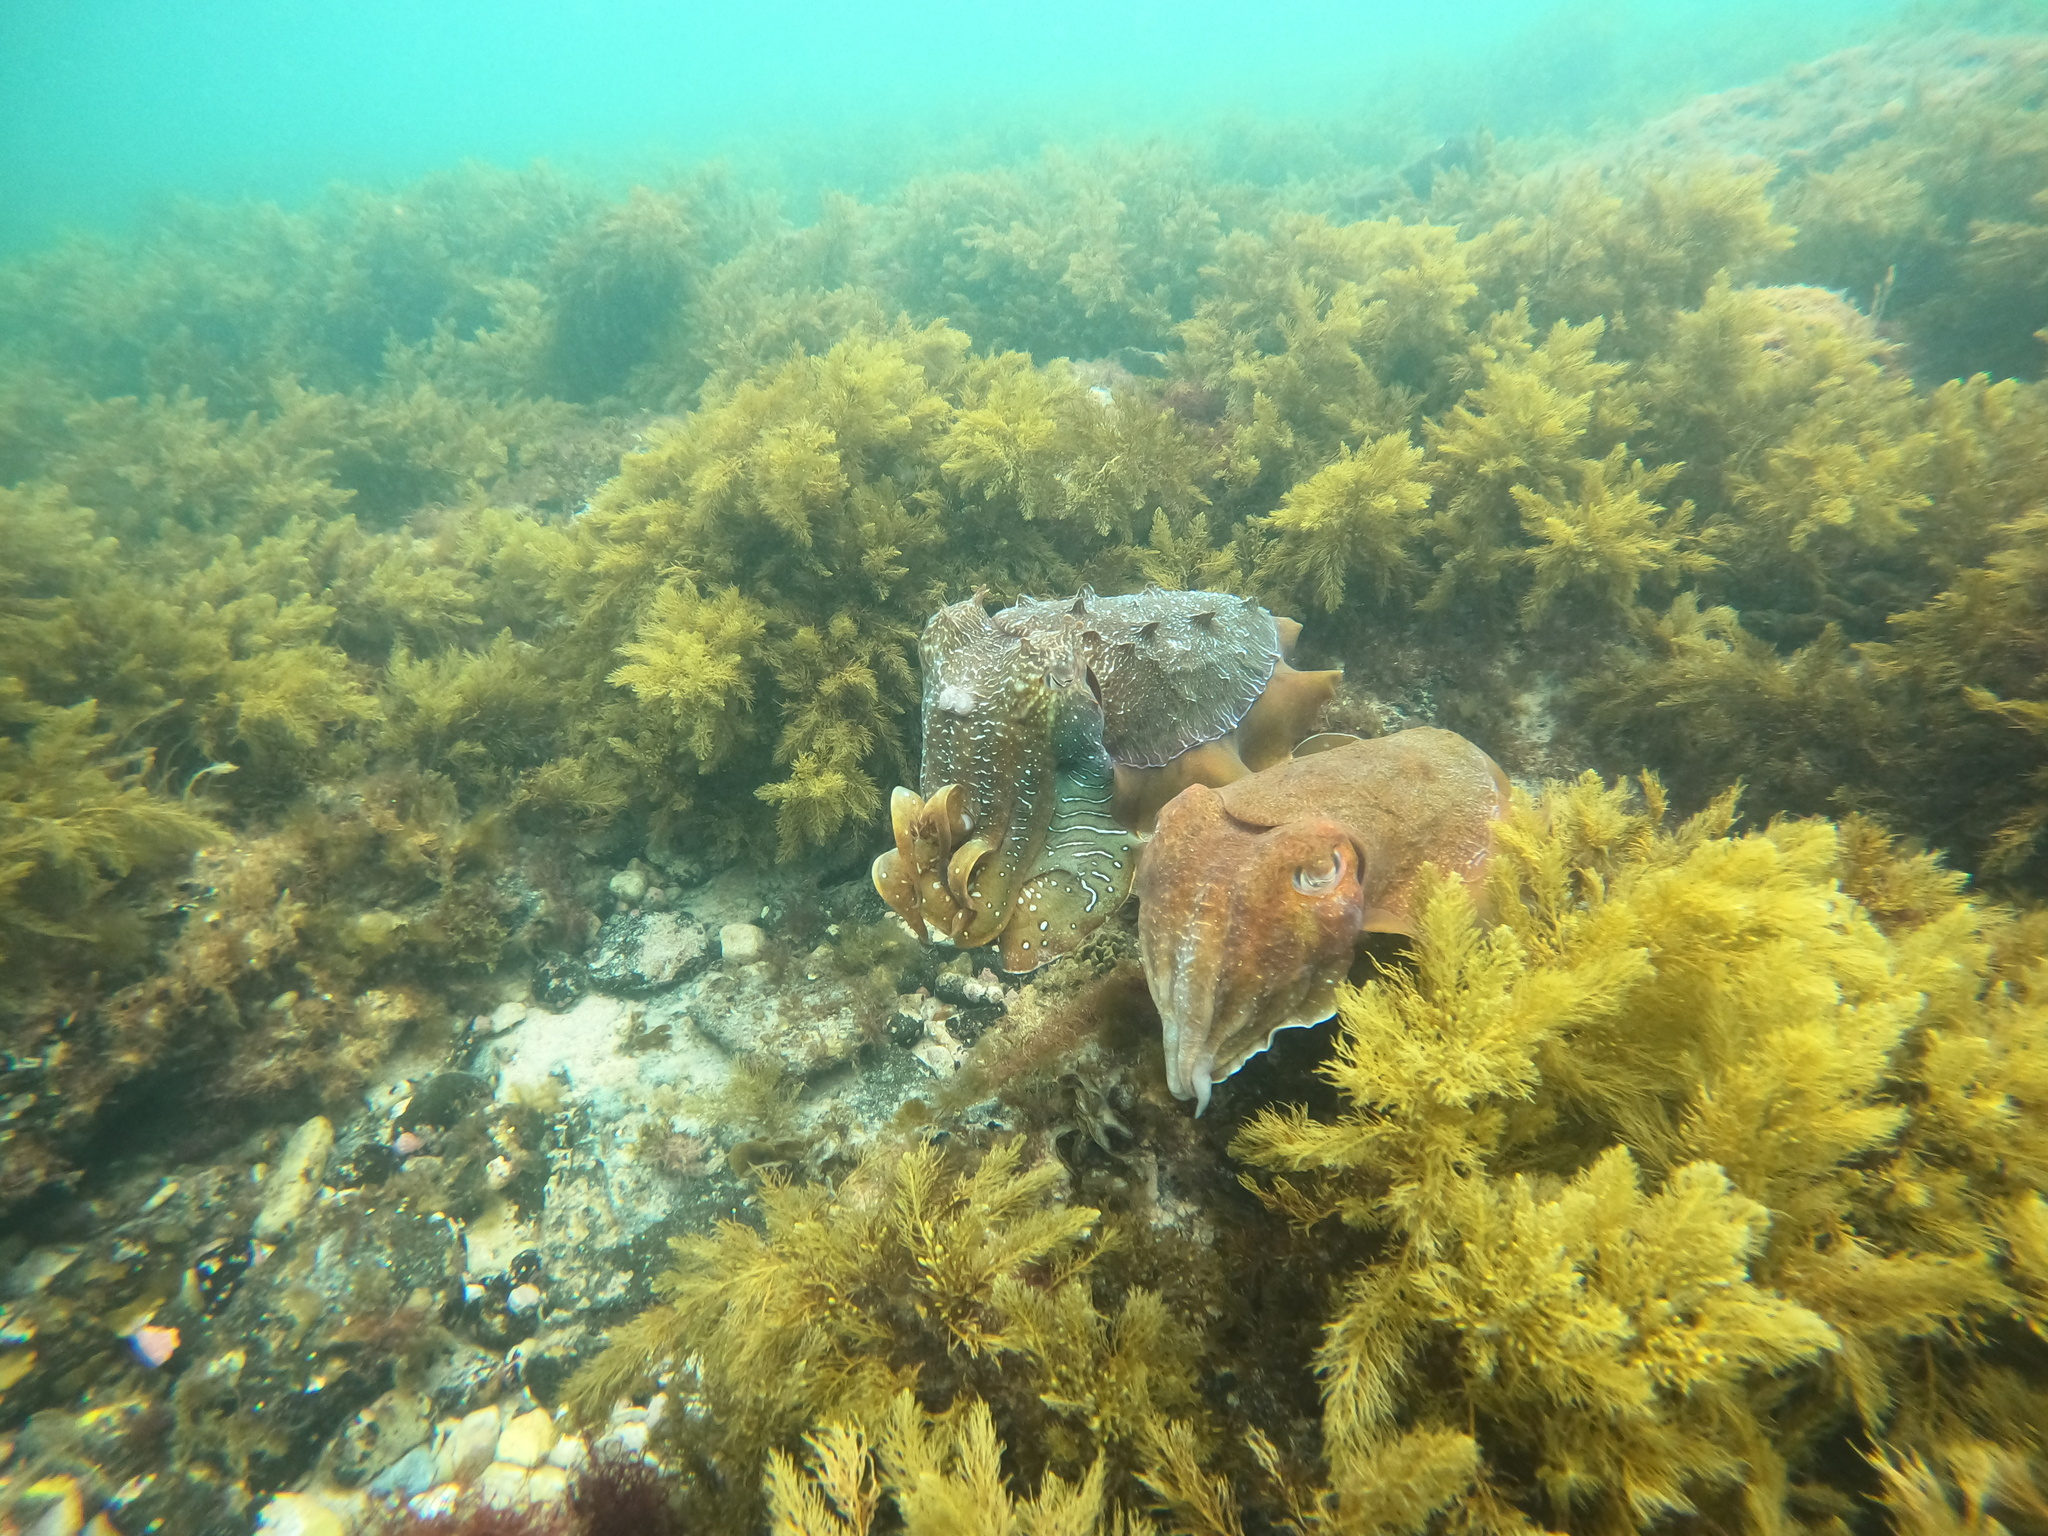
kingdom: Animalia
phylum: Mollusca
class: Cephalopoda
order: Sepiida
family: Sepiidae
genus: Ascarosepion
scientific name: Ascarosepion apama
